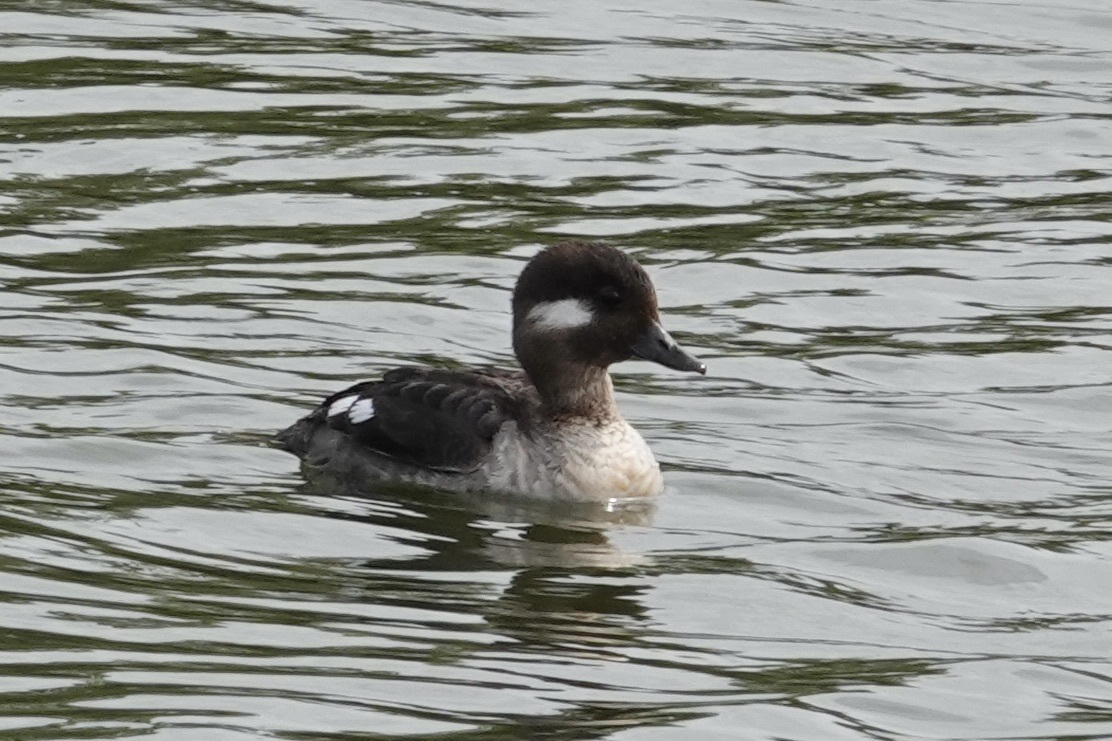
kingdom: Animalia
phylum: Chordata
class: Aves
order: Anseriformes
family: Anatidae
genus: Bucephala
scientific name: Bucephala albeola
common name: Bufflehead
